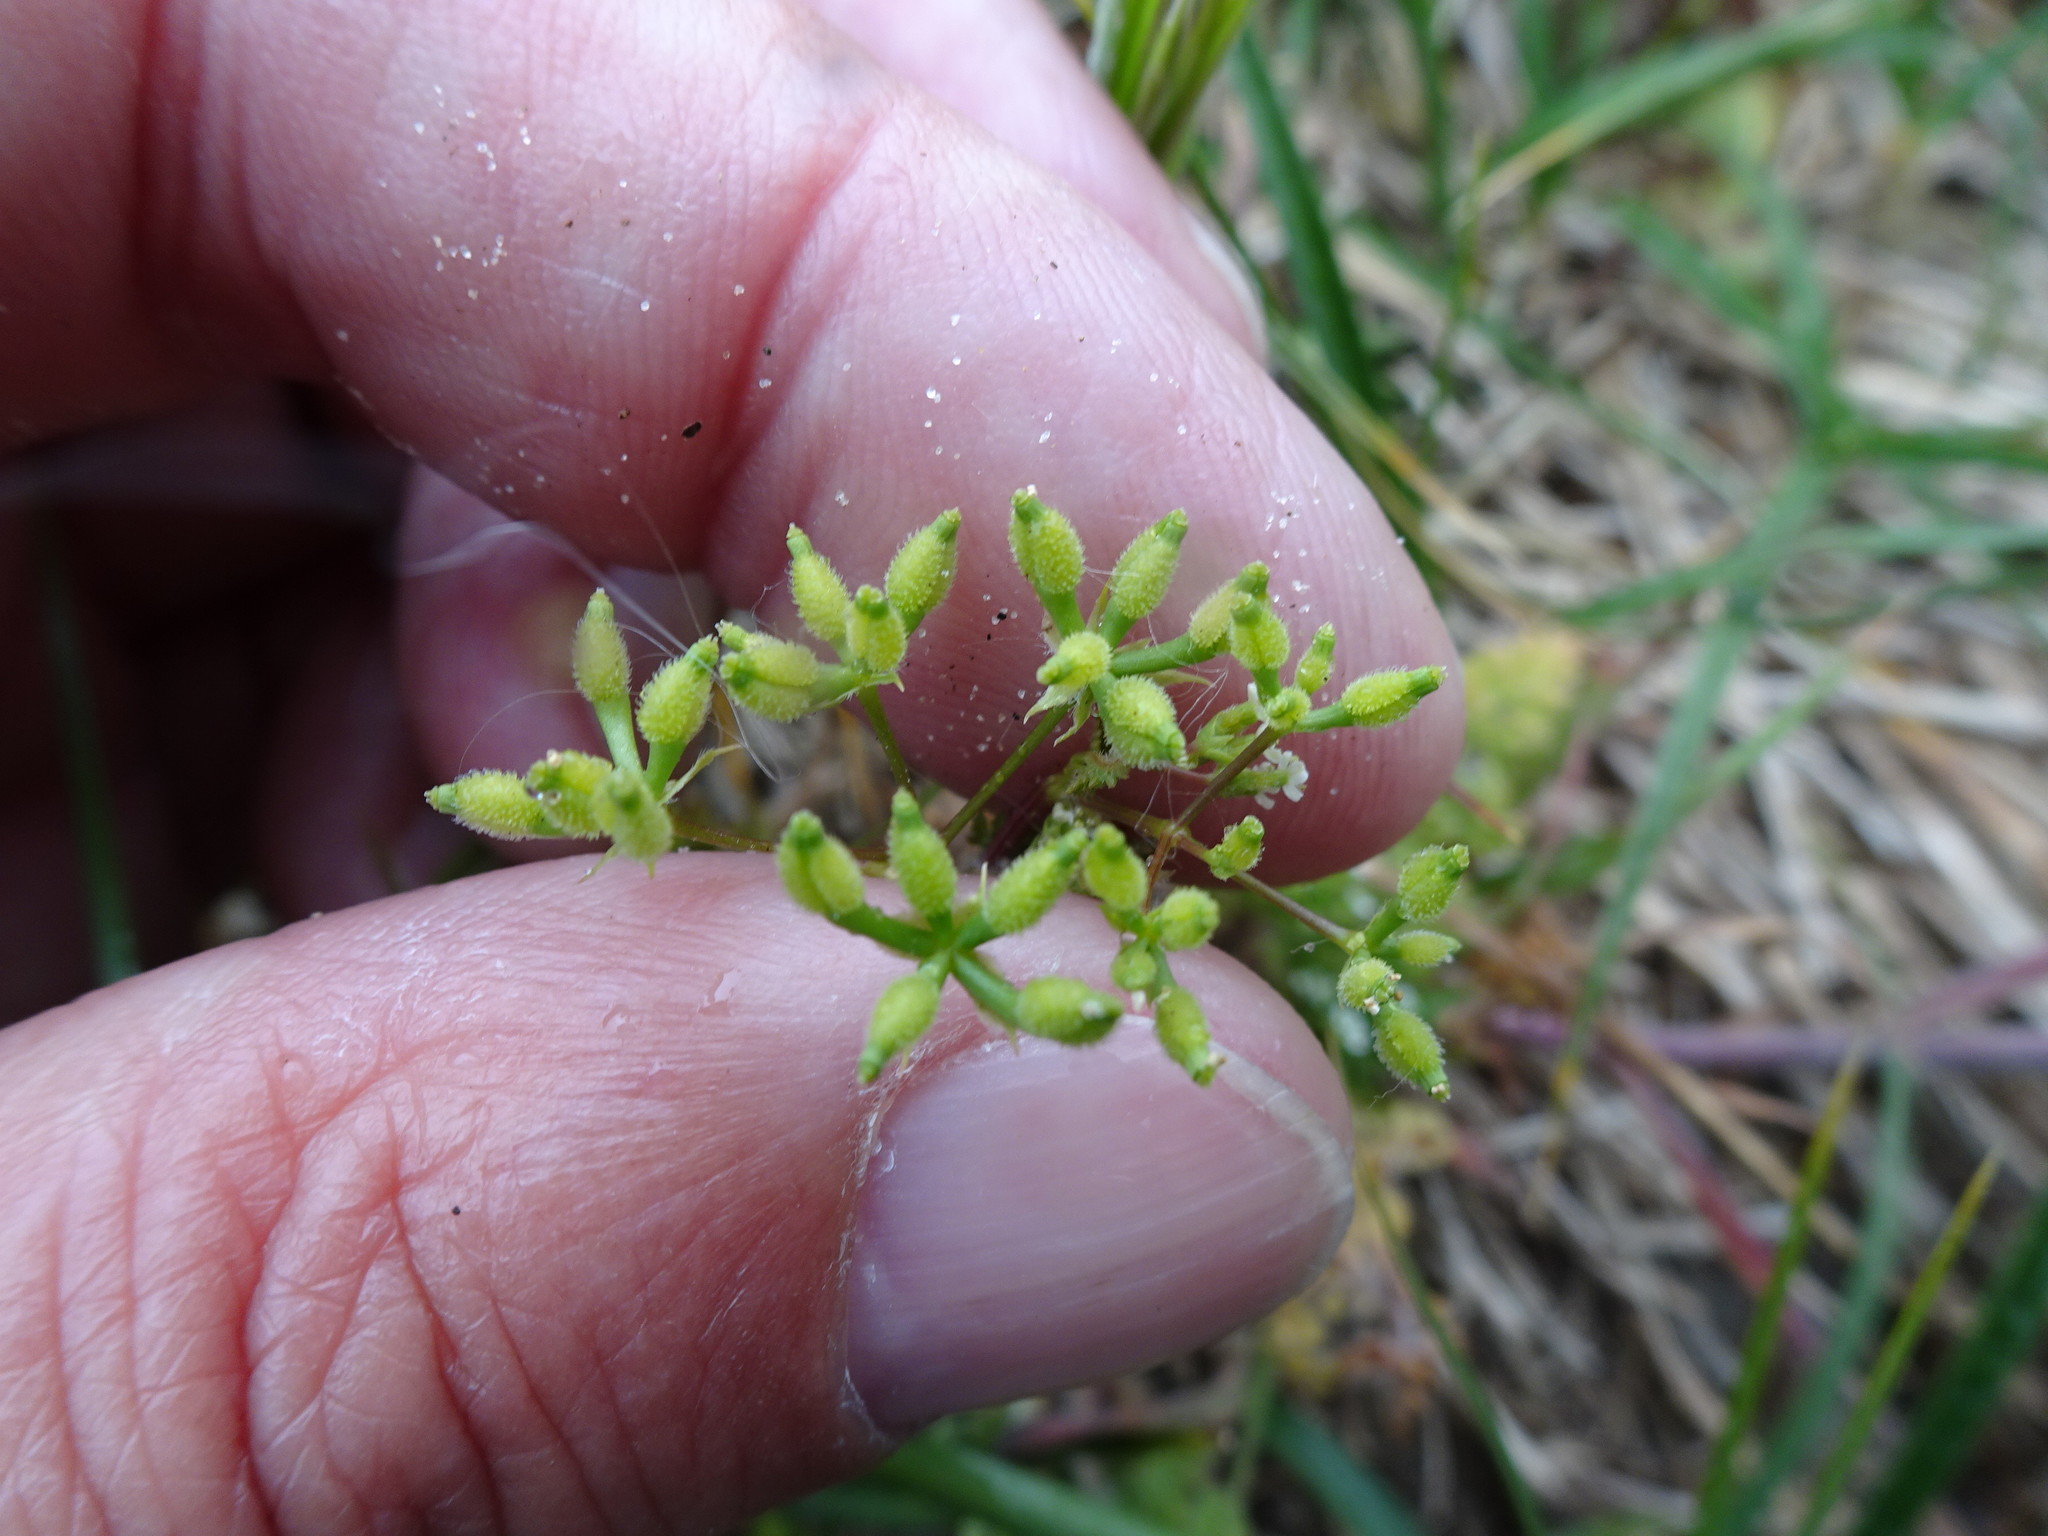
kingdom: Plantae
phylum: Tracheophyta
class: Magnoliopsida
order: Apiales
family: Apiaceae
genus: Anthriscus
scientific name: Anthriscus caucalis
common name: Bur chervil
